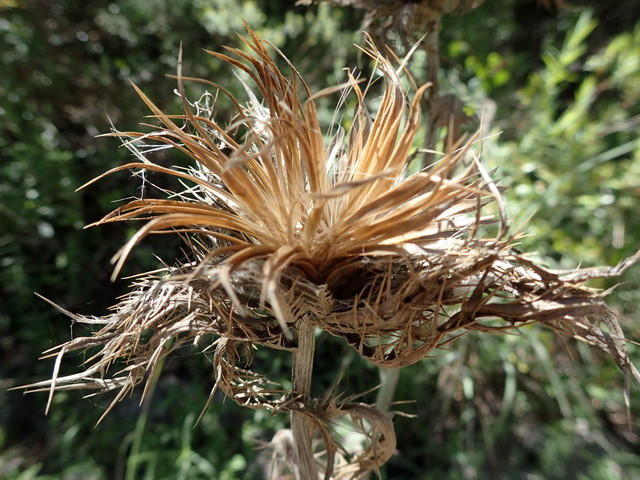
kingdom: Plantae
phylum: Tracheophyta
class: Magnoliopsida
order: Asterales
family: Asteraceae
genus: Cirsium
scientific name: Cirsium horridulum
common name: Bristly thistle
